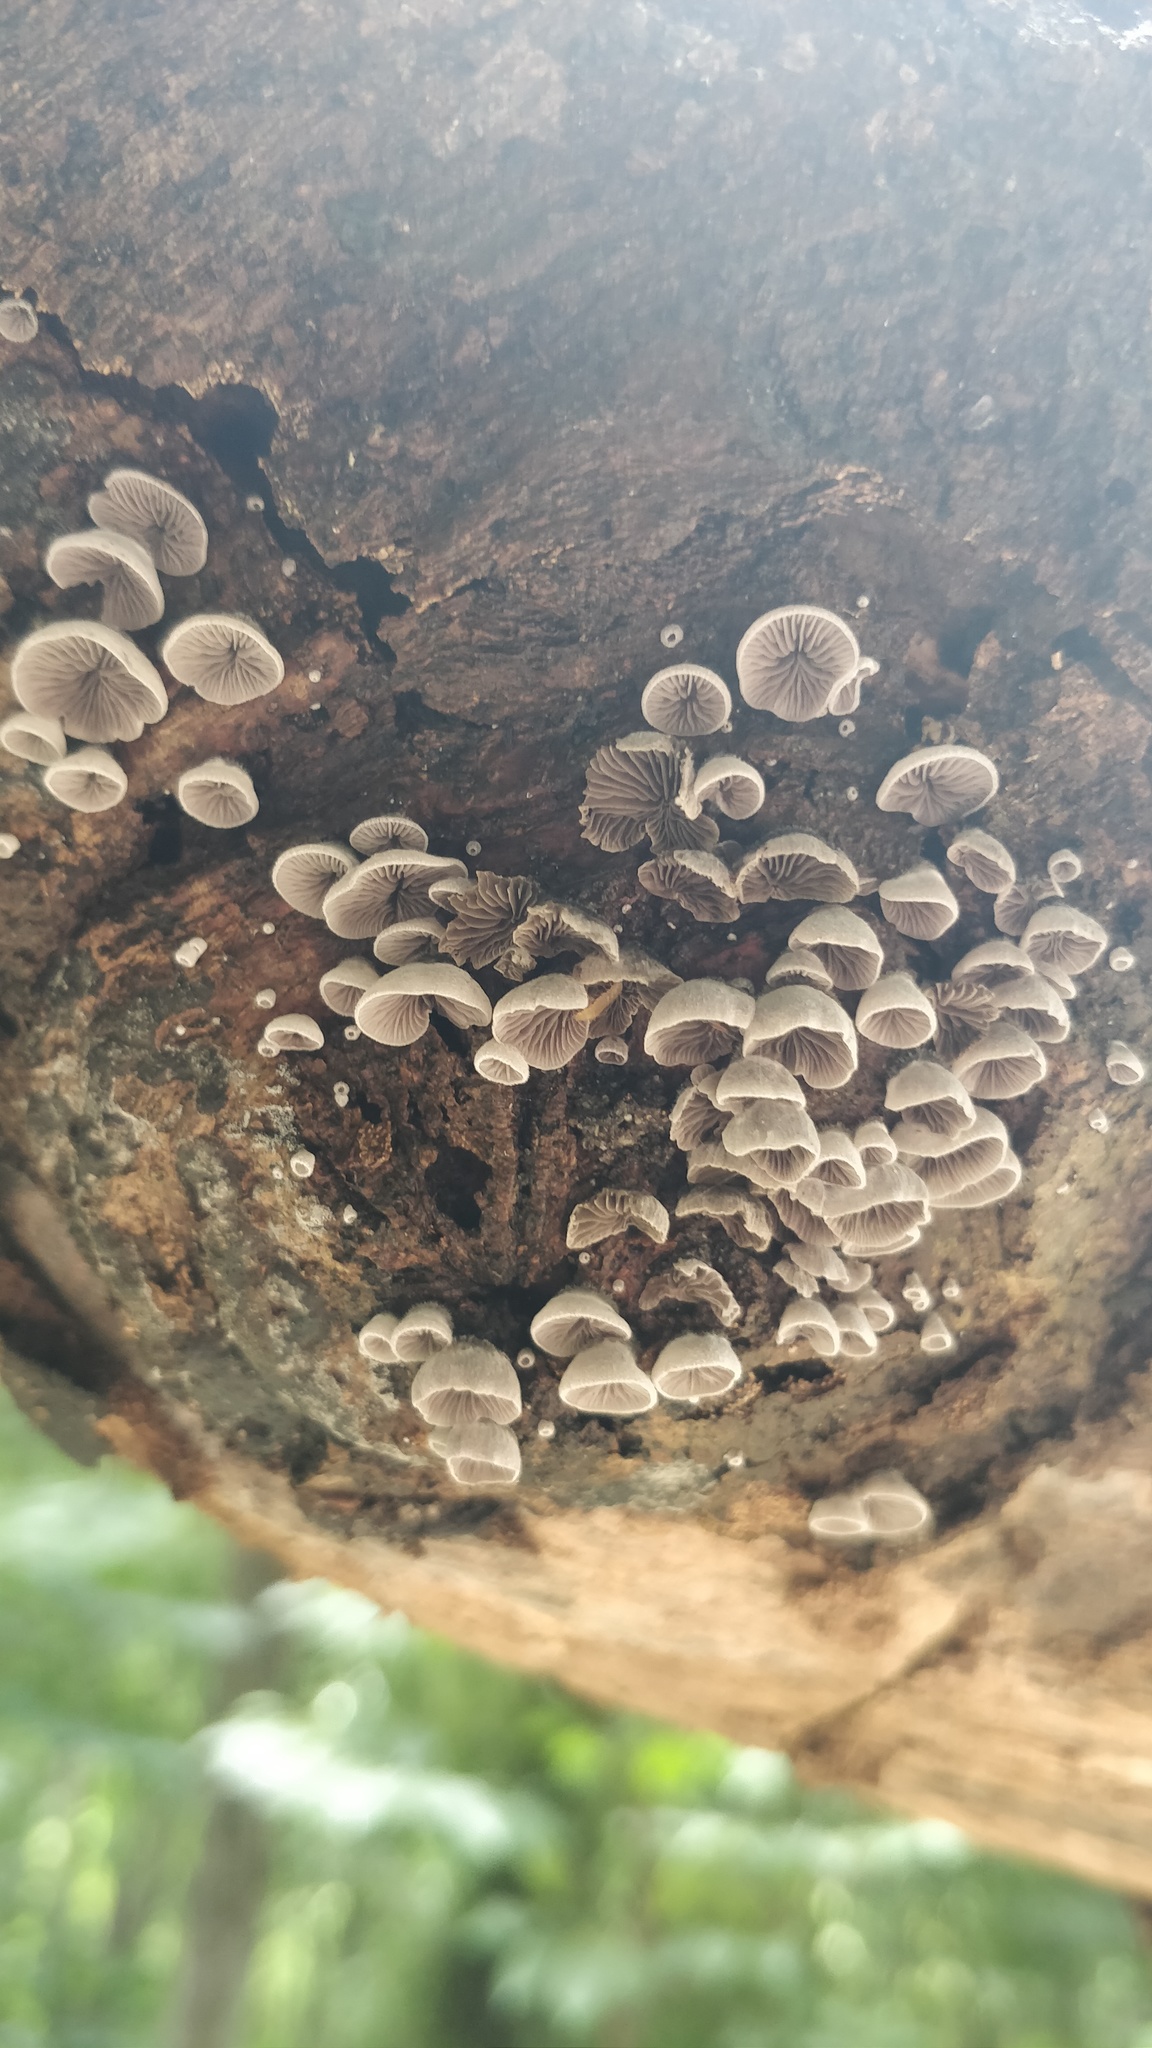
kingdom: Fungi
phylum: Basidiomycota
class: Agaricomycetes
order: Agaricales
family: Pleurotaceae
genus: Resupinatus
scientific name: Resupinatus applicatus
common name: Smoked oysterling
